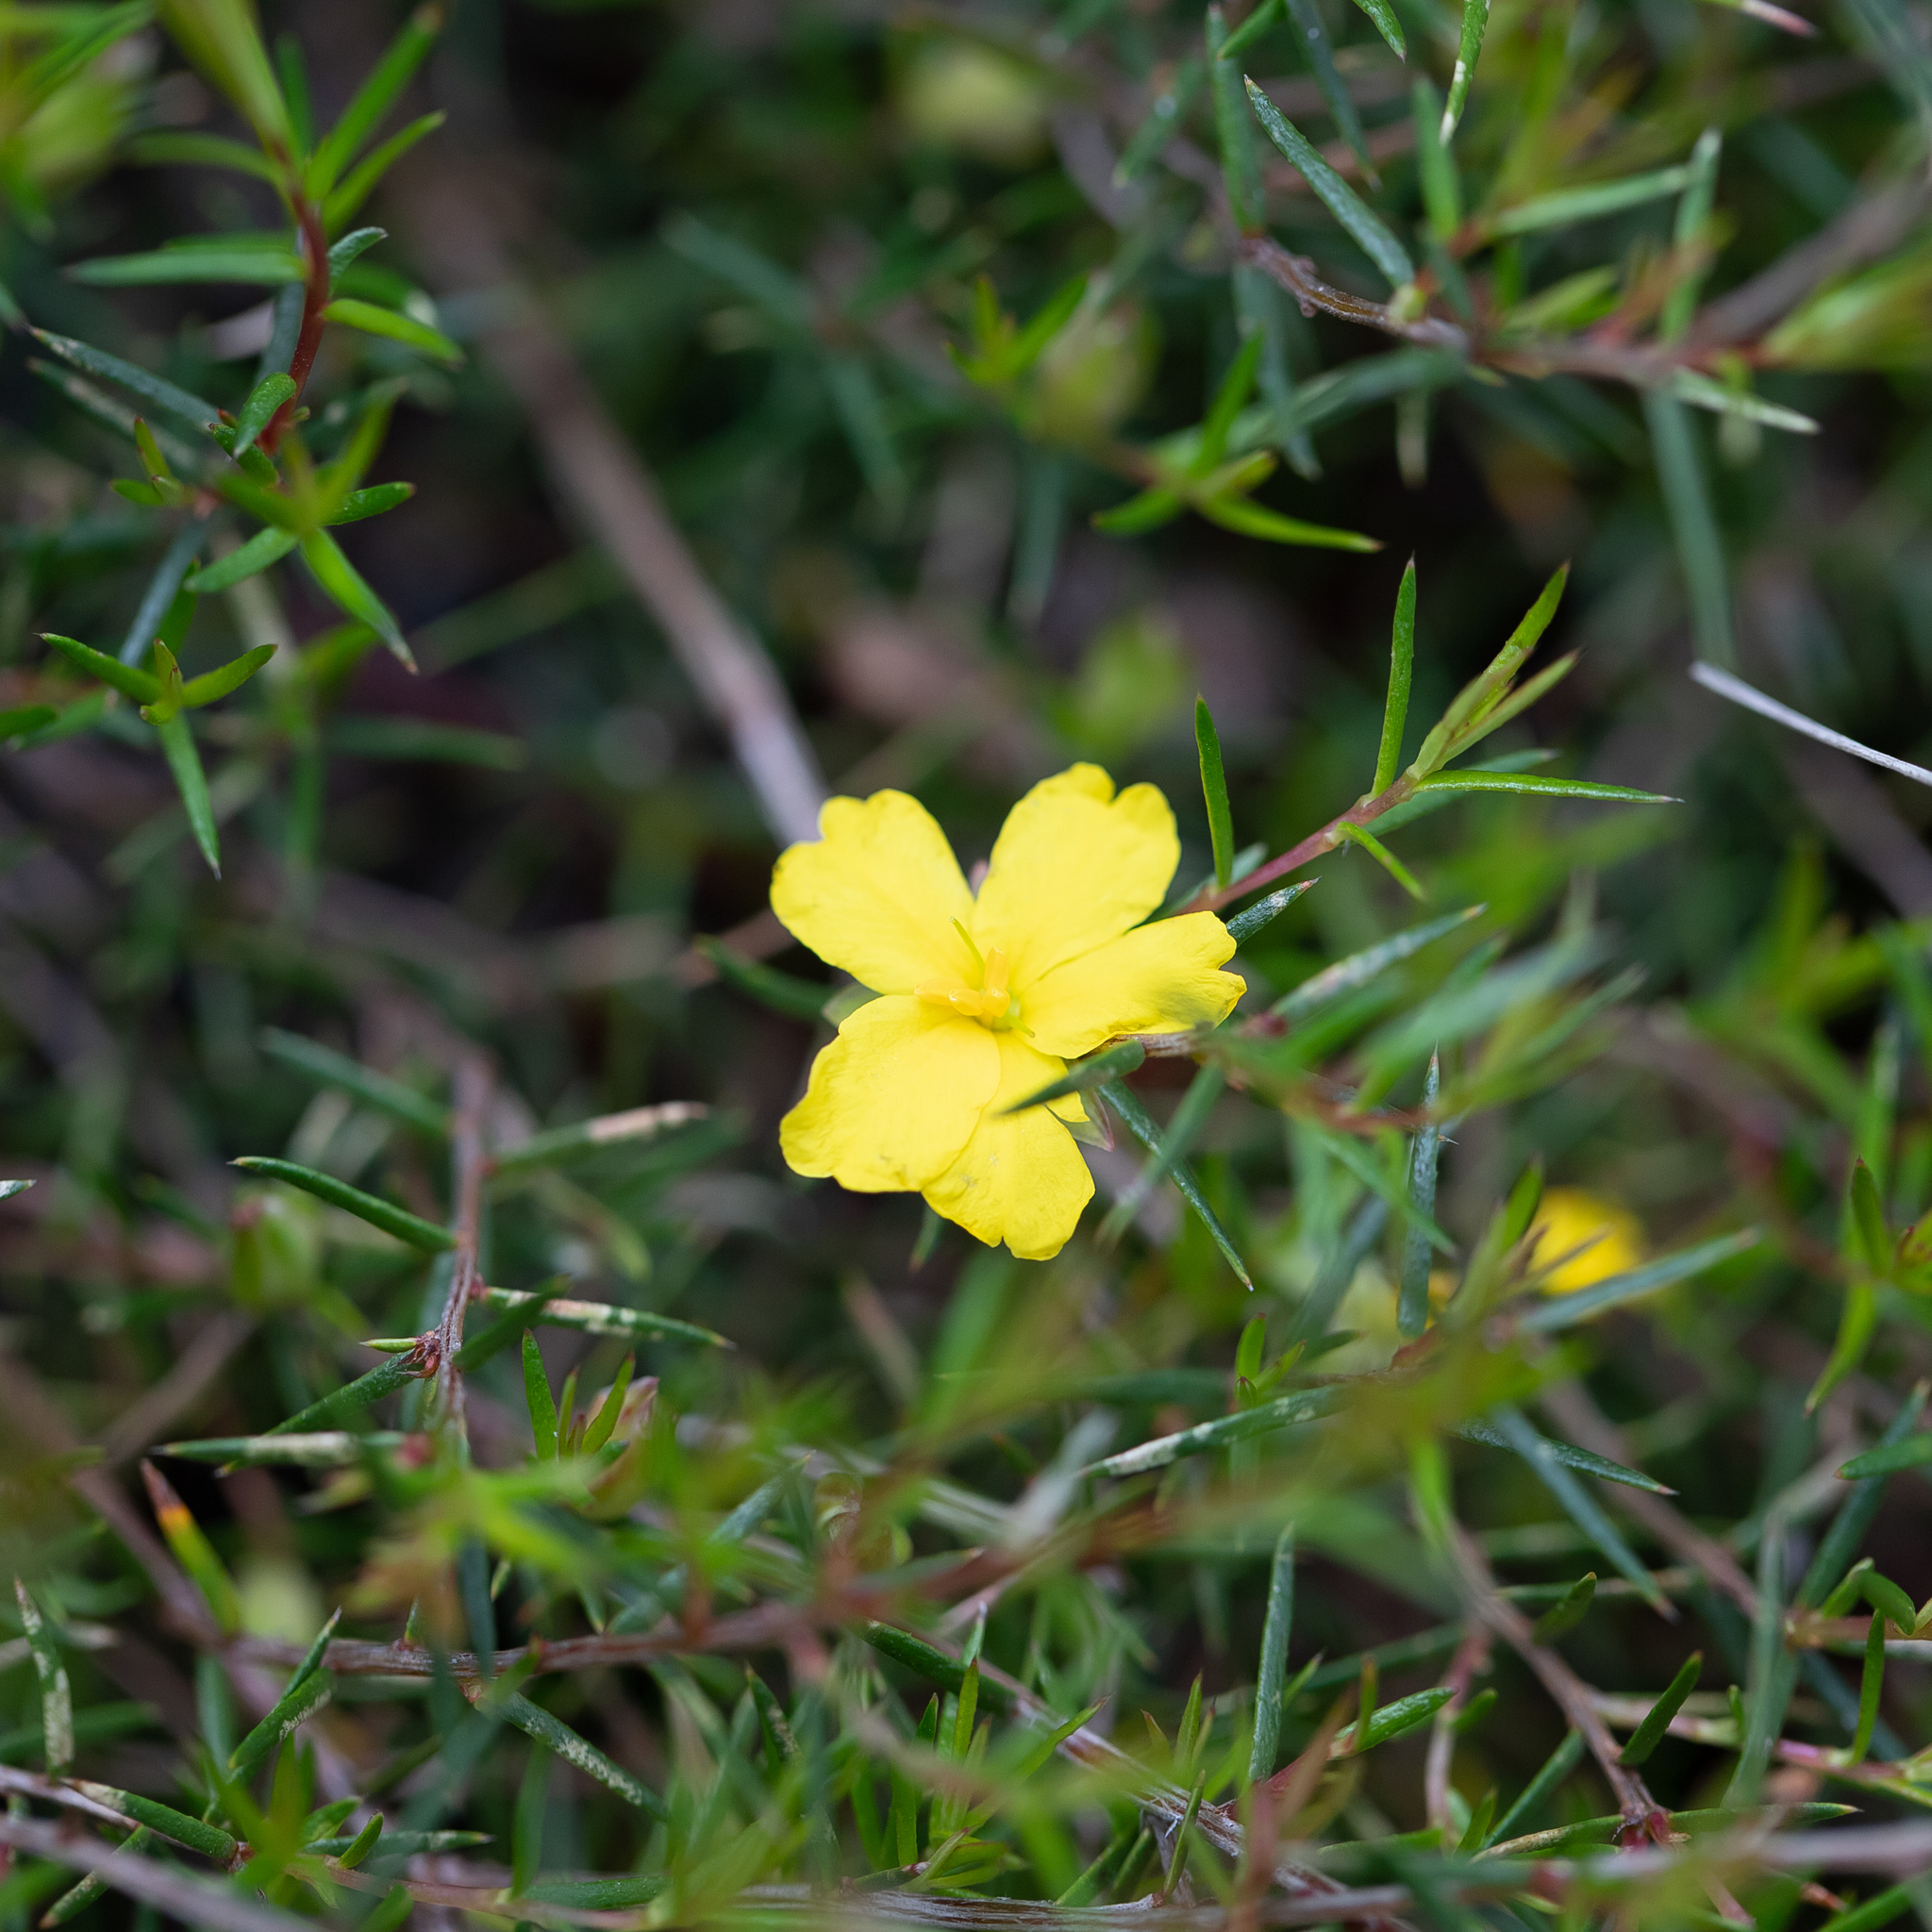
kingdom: Plantae
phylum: Tracheophyta
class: Magnoliopsida
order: Dilleniales
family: Dilleniaceae
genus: Hibbertia
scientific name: Hibbertia exutiacies
